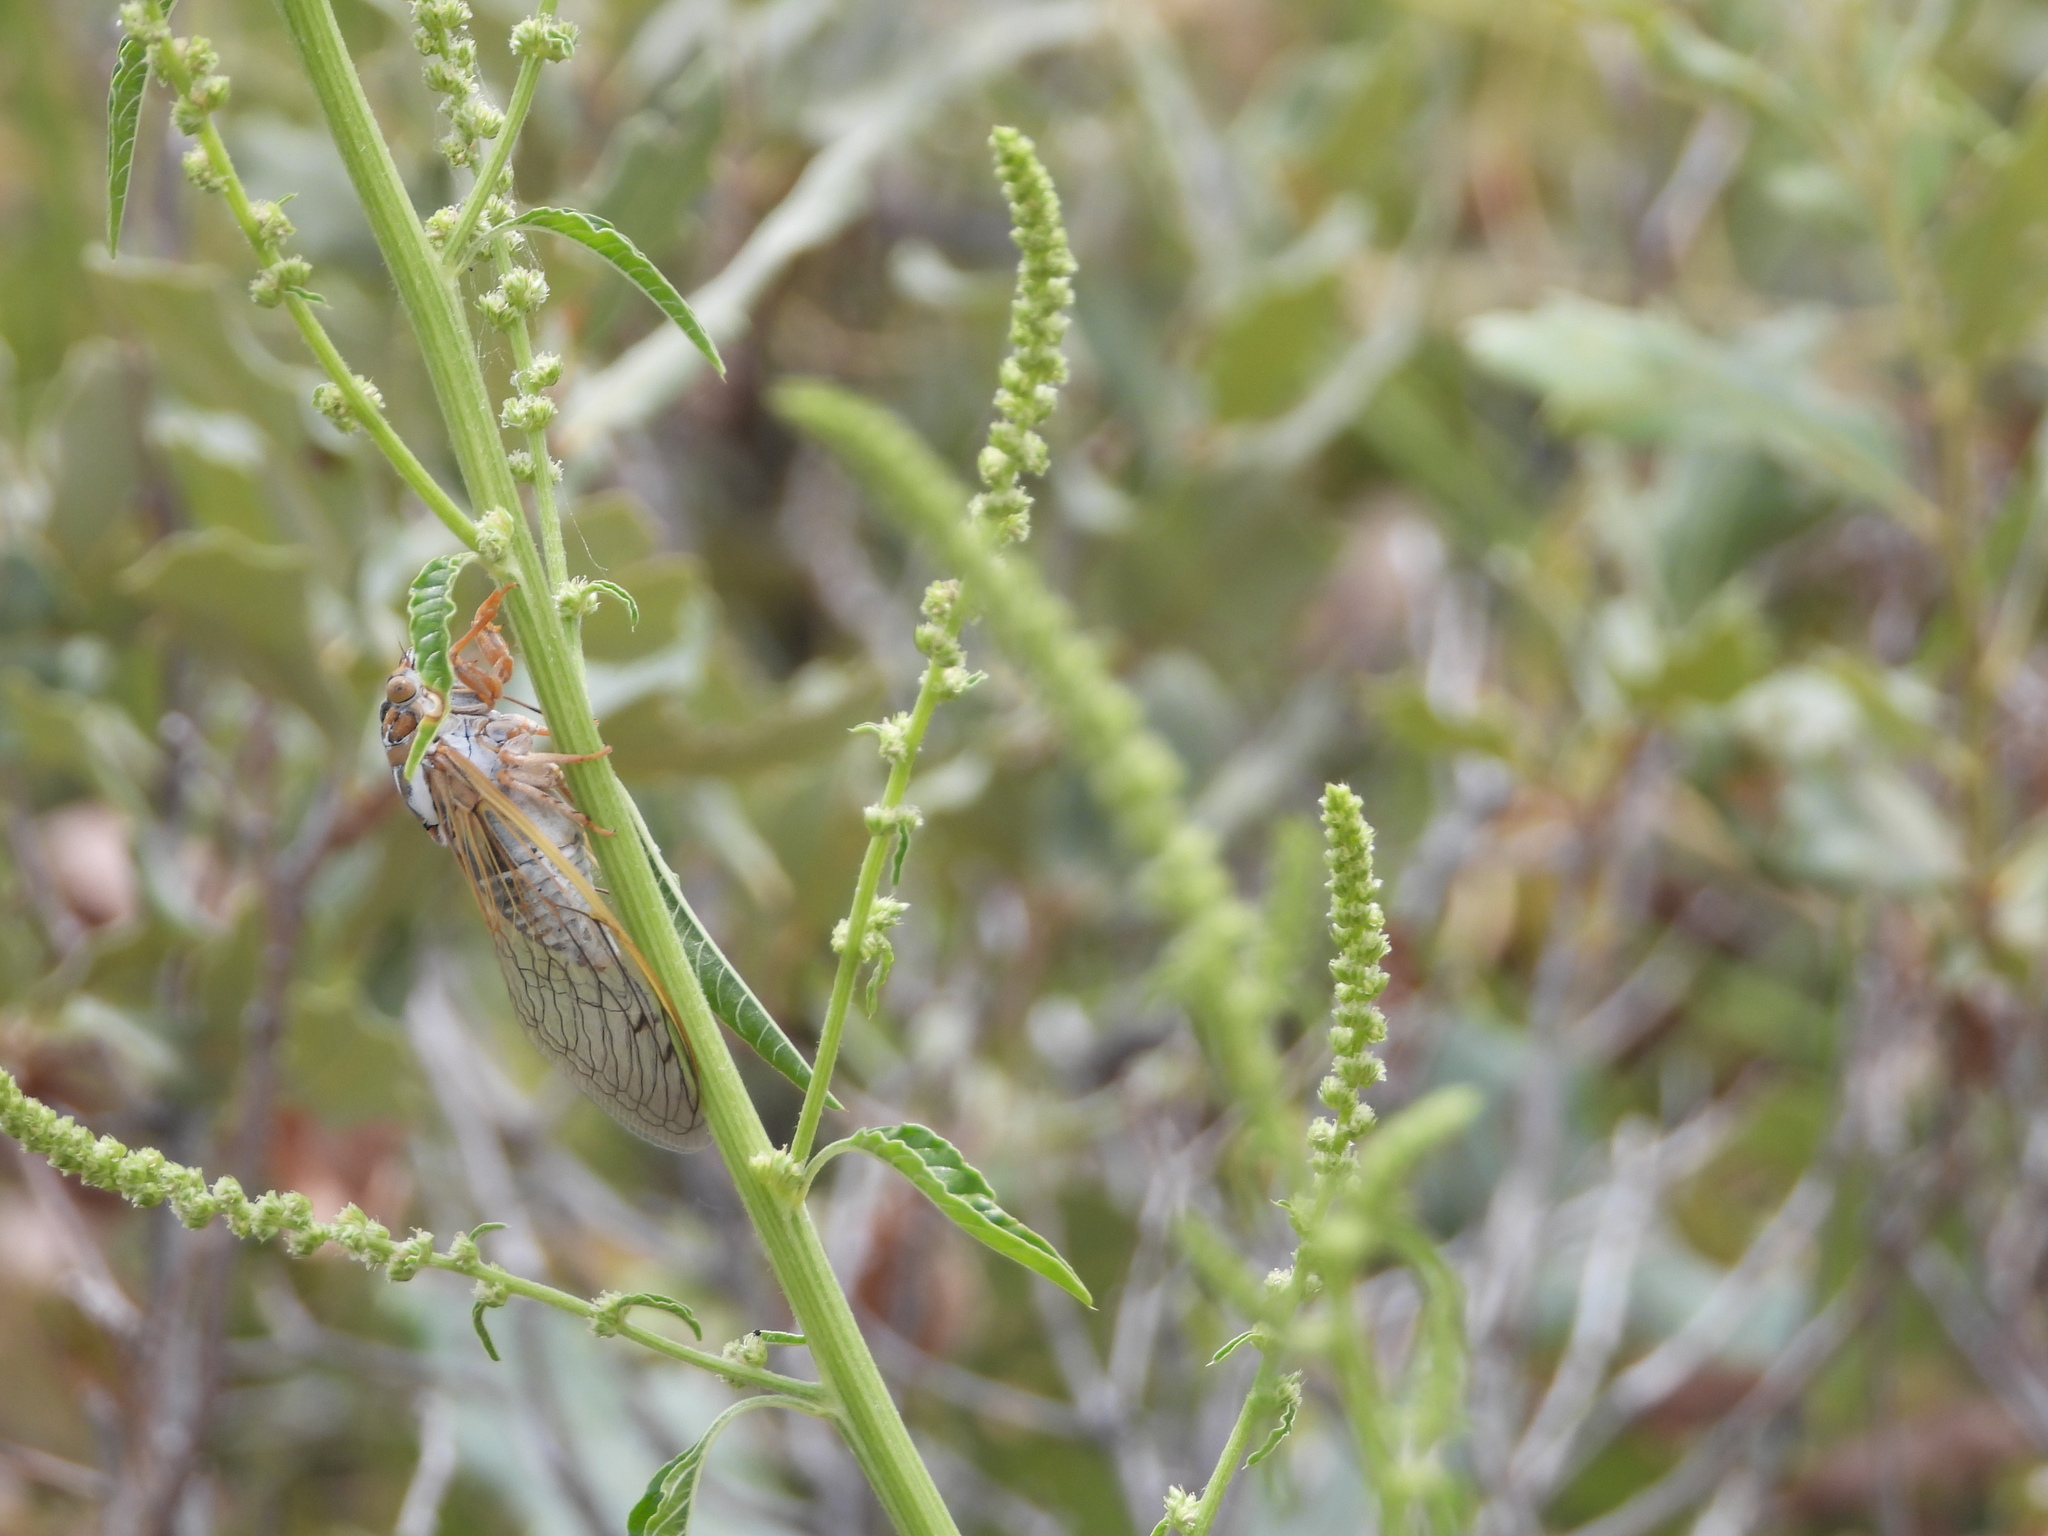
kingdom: Animalia
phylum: Arthropoda
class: Insecta
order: Hemiptera
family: Cicadidae
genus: Megatibicen
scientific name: Megatibicen harenosus
